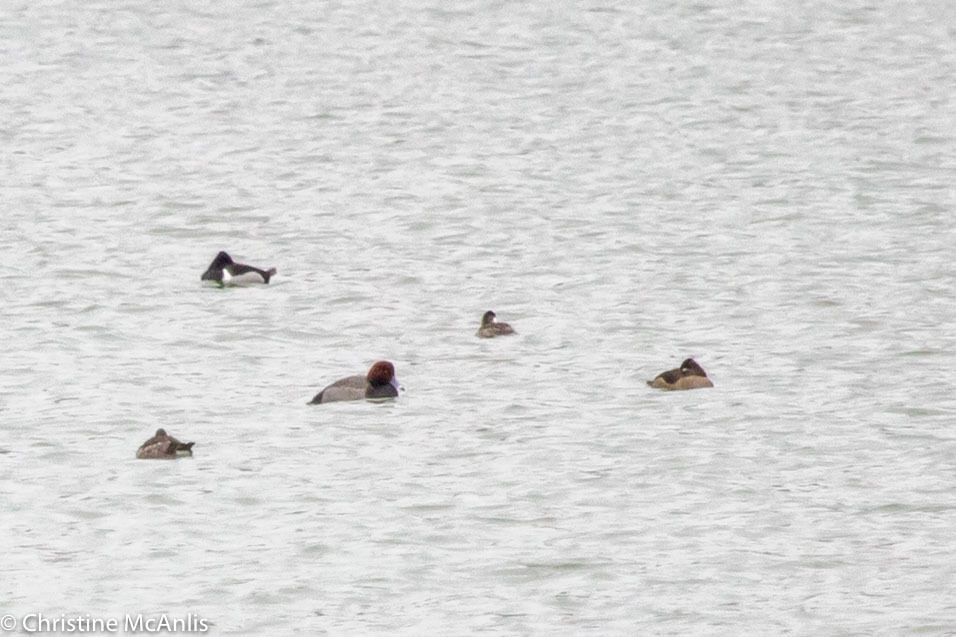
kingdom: Animalia
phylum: Chordata
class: Aves
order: Anseriformes
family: Anatidae
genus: Aythya
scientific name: Aythya americana
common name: Redhead
